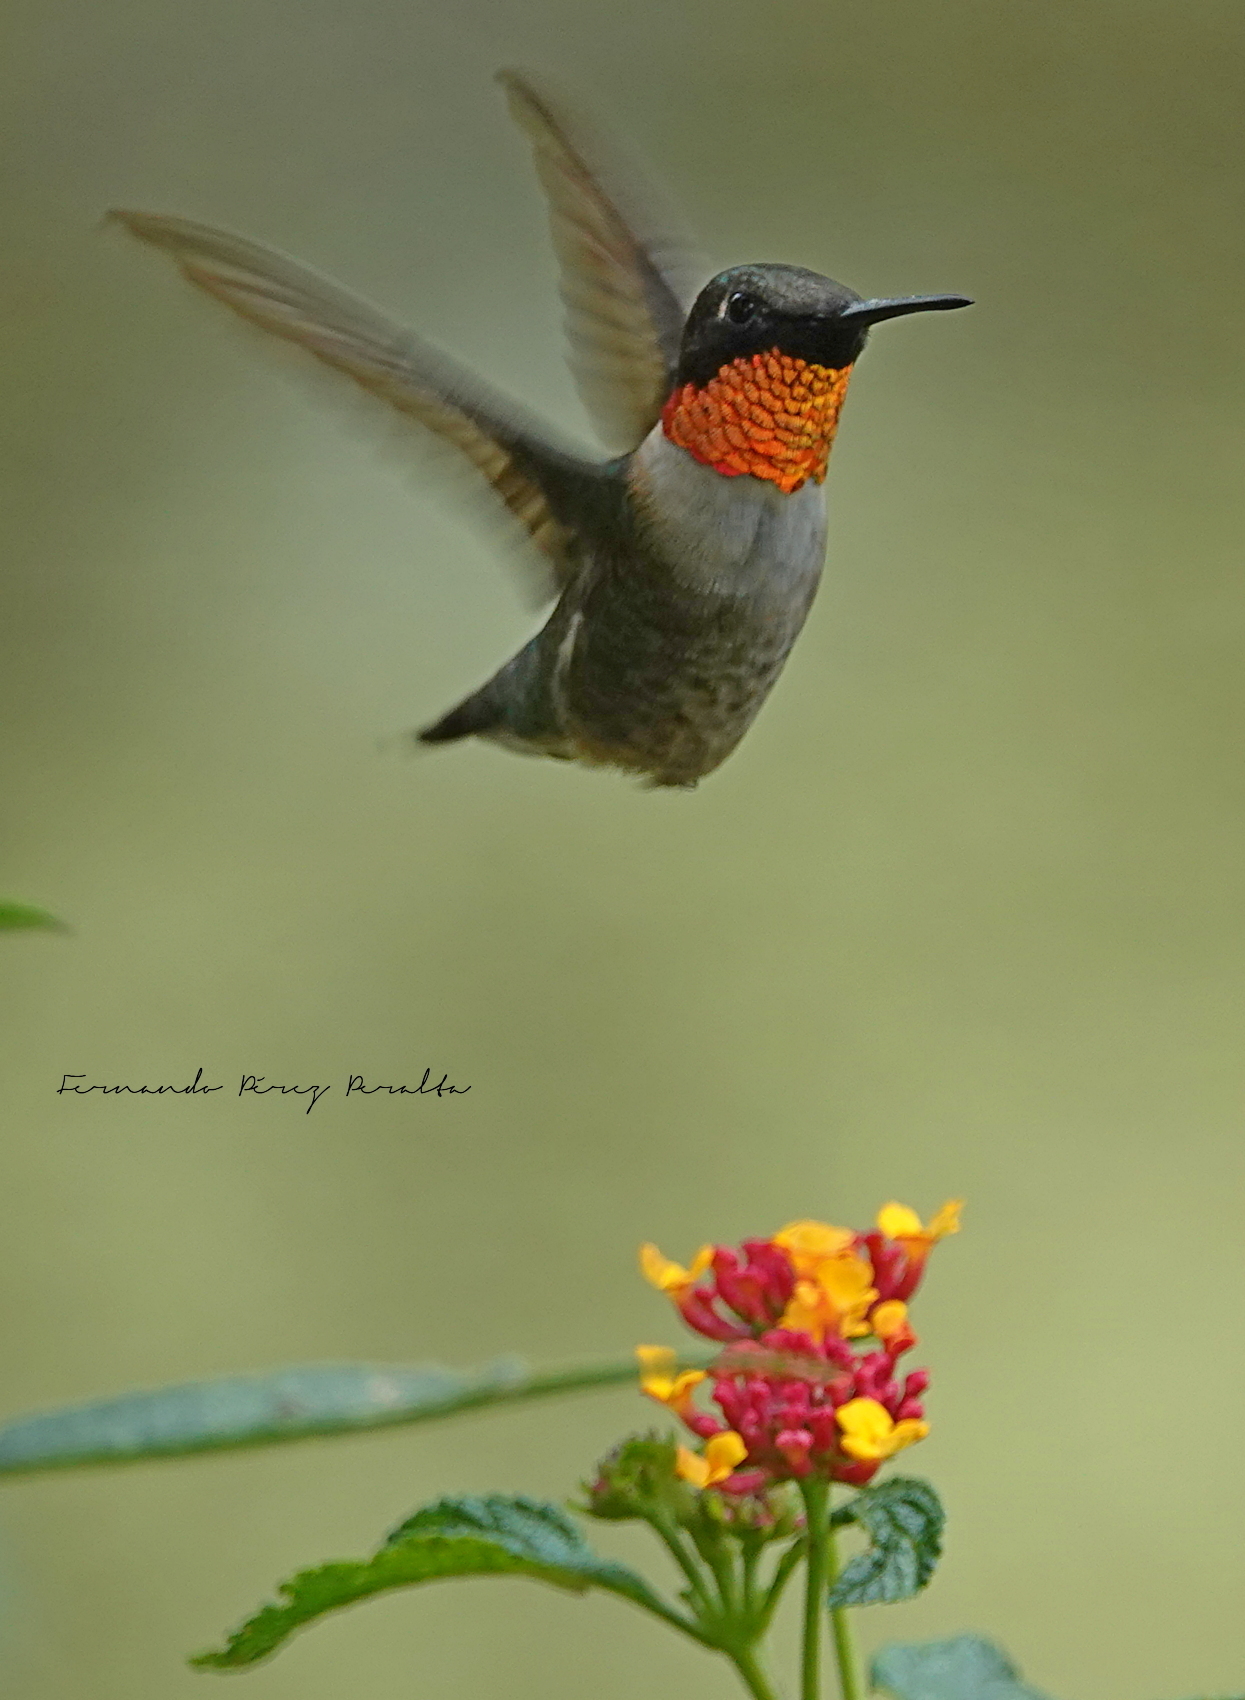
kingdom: Animalia
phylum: Chordata
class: Aves
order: Apodiformes
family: Trochilidae
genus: Archilochus
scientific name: Archilochus colubris
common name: Ruby-throated hummingbird
